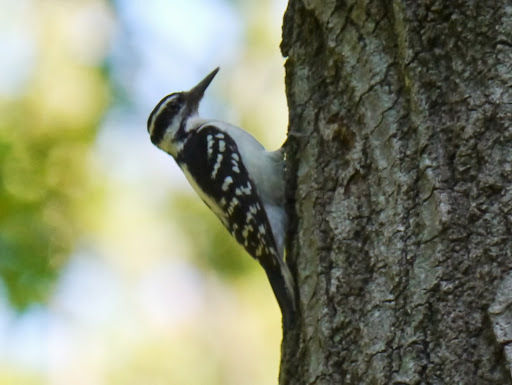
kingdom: Animalia
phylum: Chordata
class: Aves
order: Piciformes
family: Picidae
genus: Leuconotopicus
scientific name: Leuconotopicus villosus
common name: Hairy woodpecker
